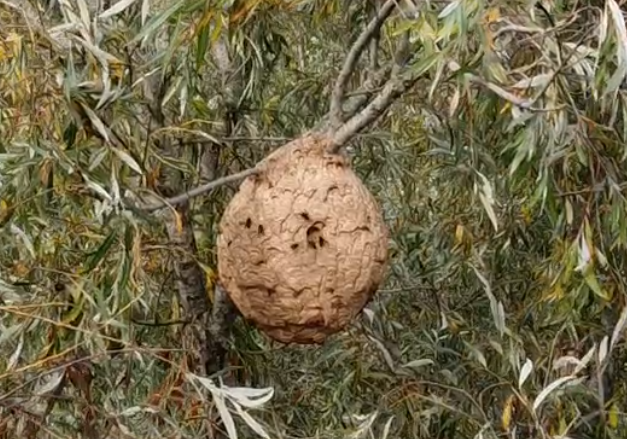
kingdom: Animalia
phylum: Arthropoda
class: Insecta
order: Hymenoptera
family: Vespidae
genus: Vespa
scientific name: Vespa velutina
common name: Asian hornet
